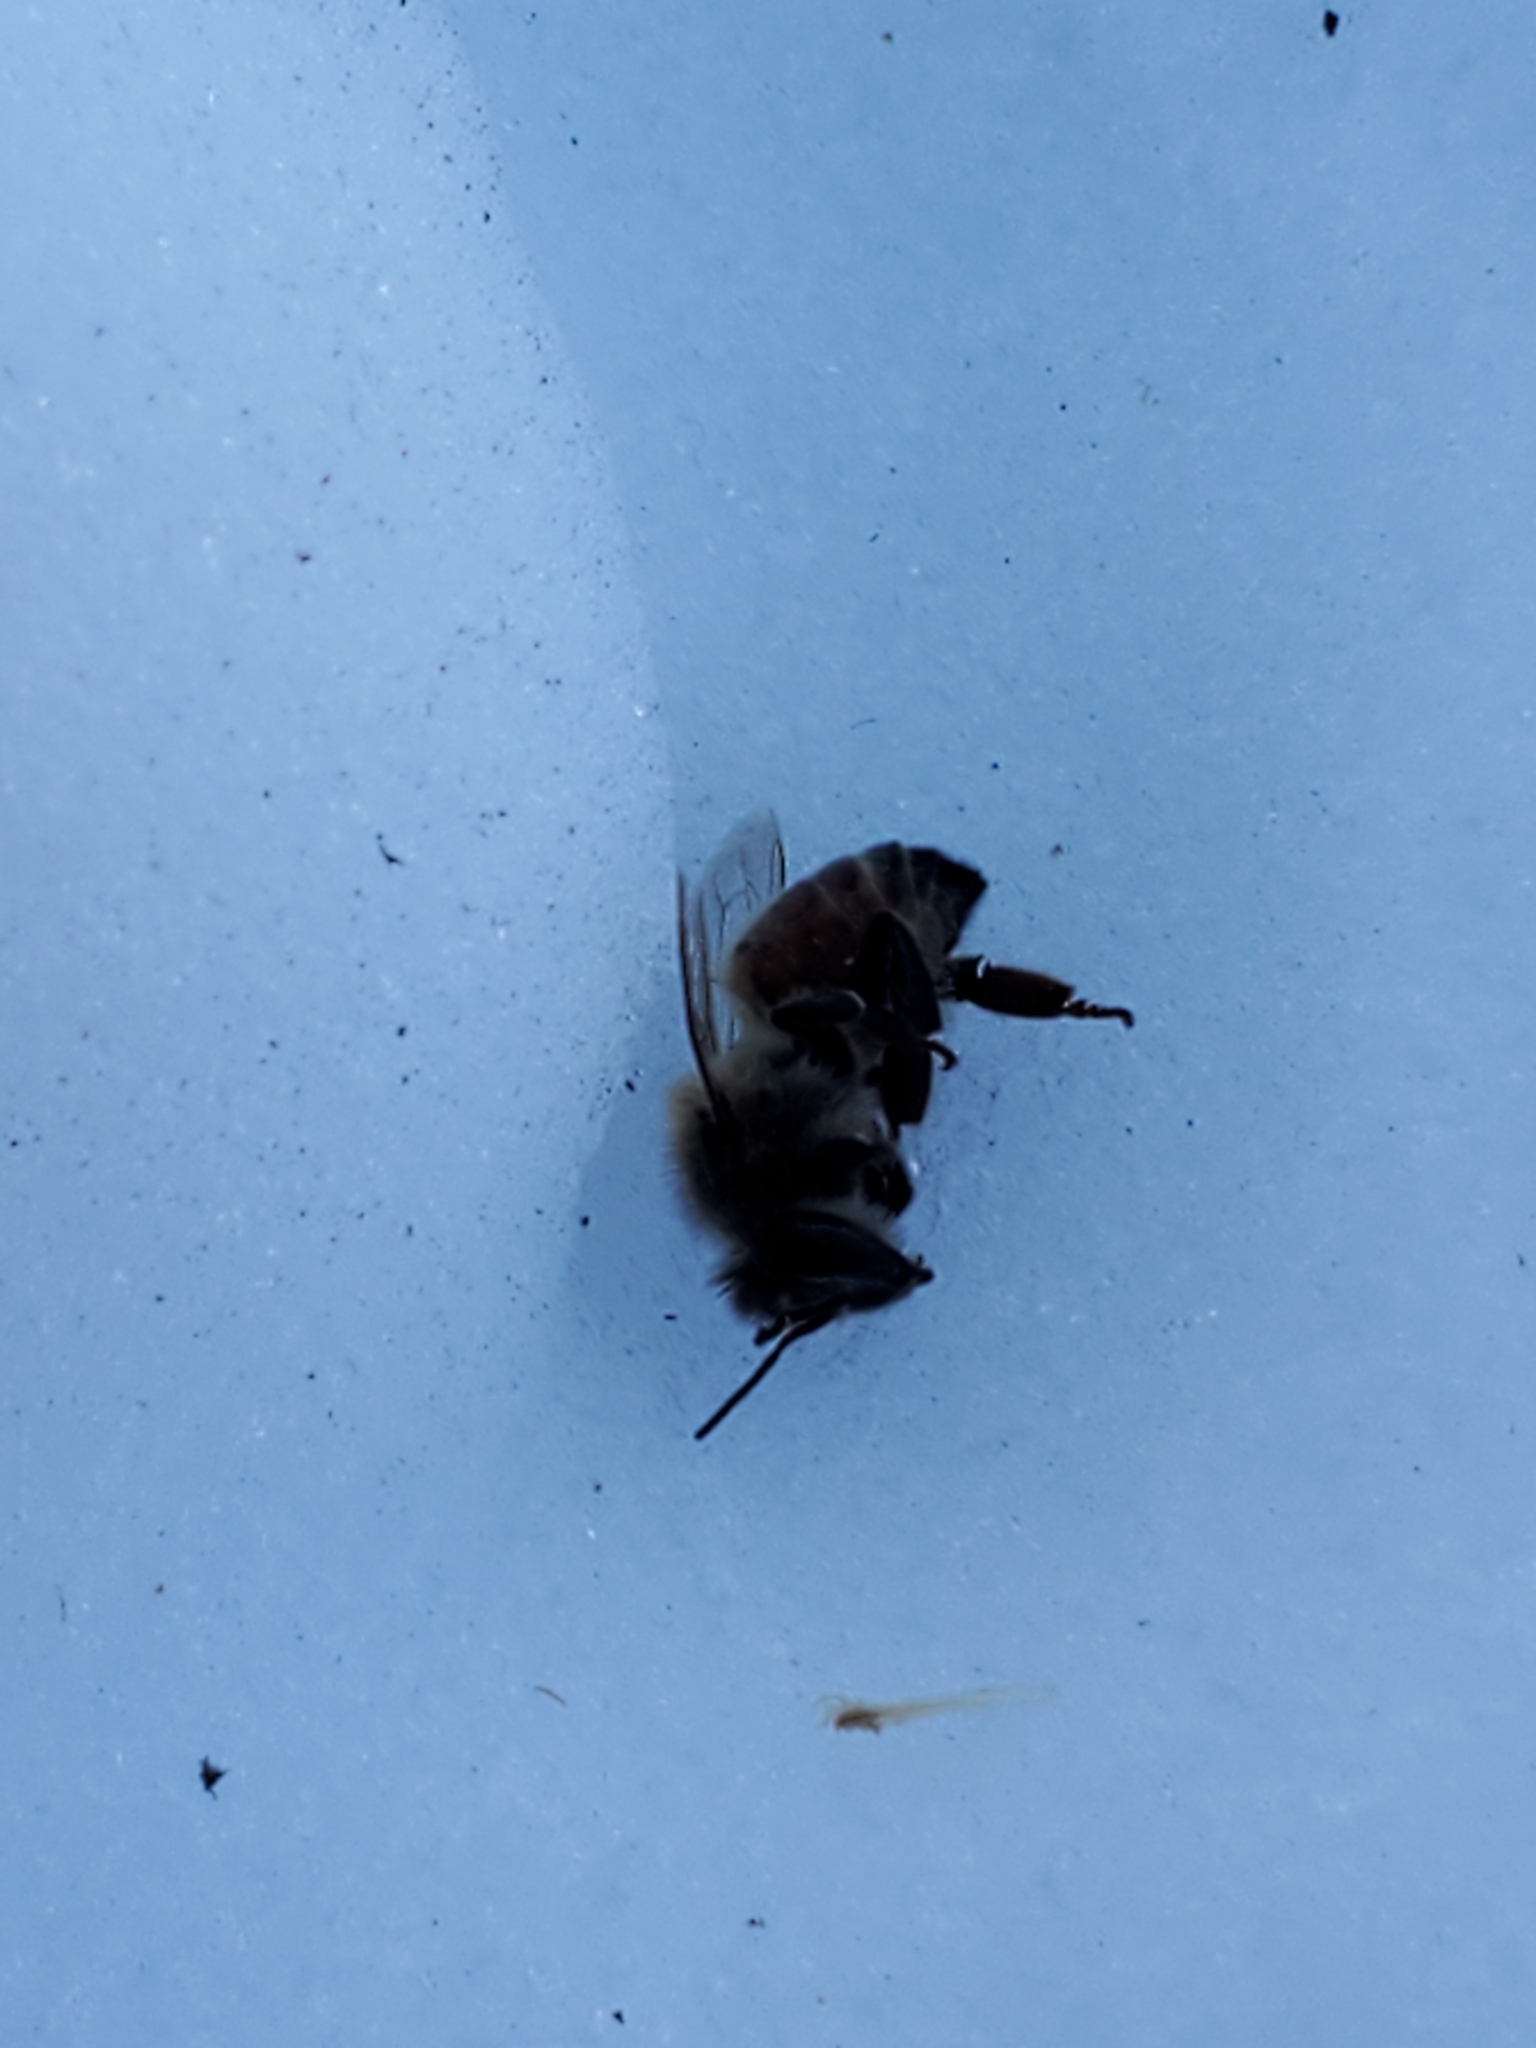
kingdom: Animalia
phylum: Arthropoda
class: Insecta
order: Hymenoptera
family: Apidae
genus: Apis
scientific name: Apis mellifera
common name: Honey bee
